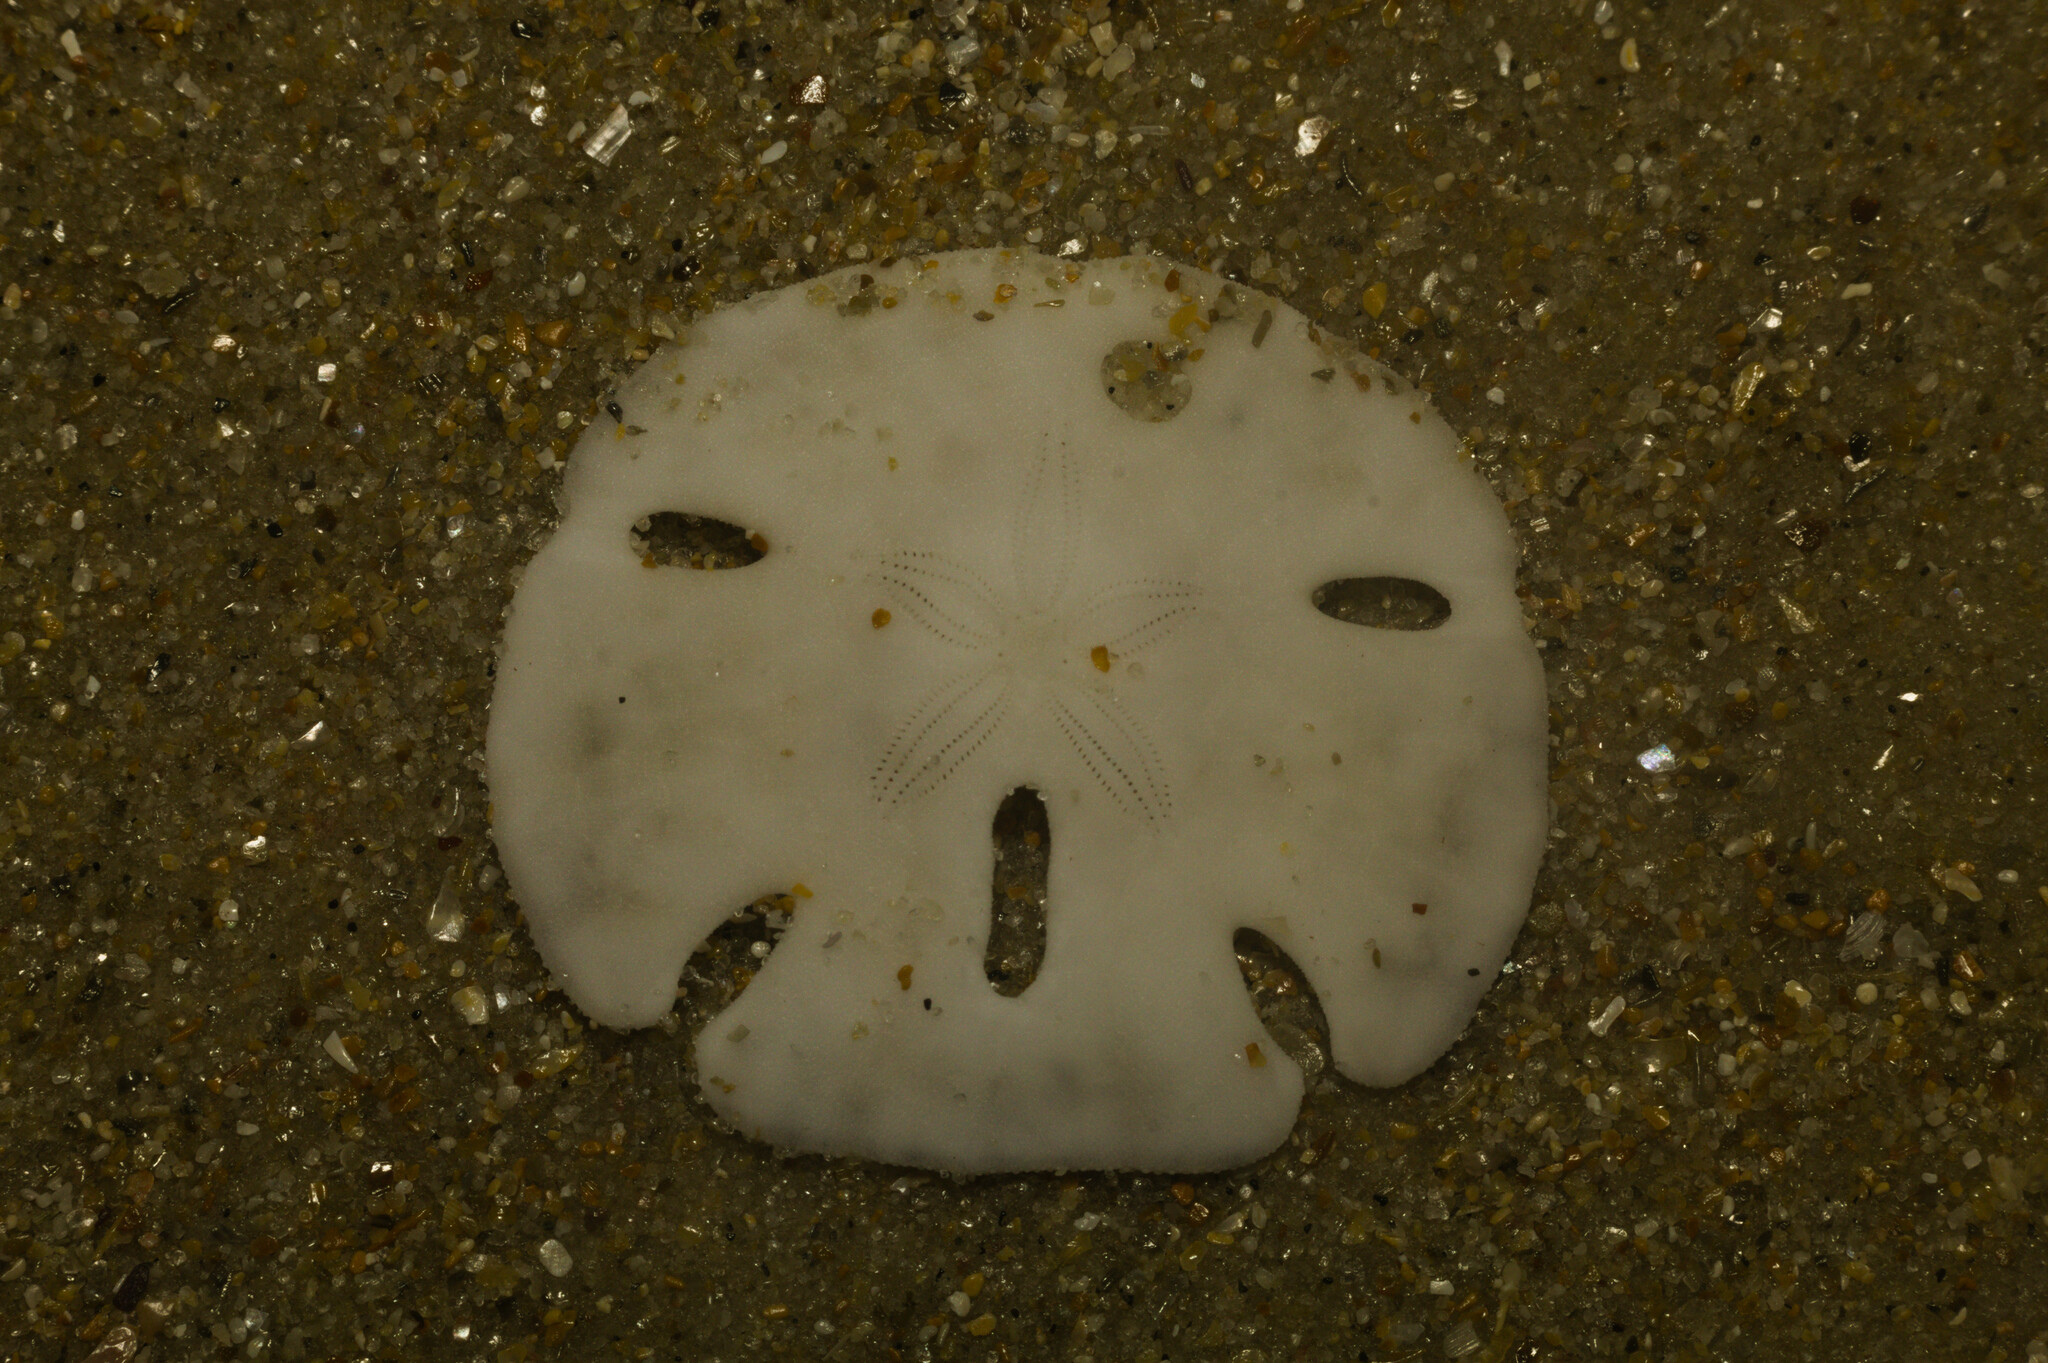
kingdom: Animalia
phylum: Echinodermata
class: Echinoidea
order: Echinolampadacea
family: Mellitidae
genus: Encope
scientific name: Encope emarginata
